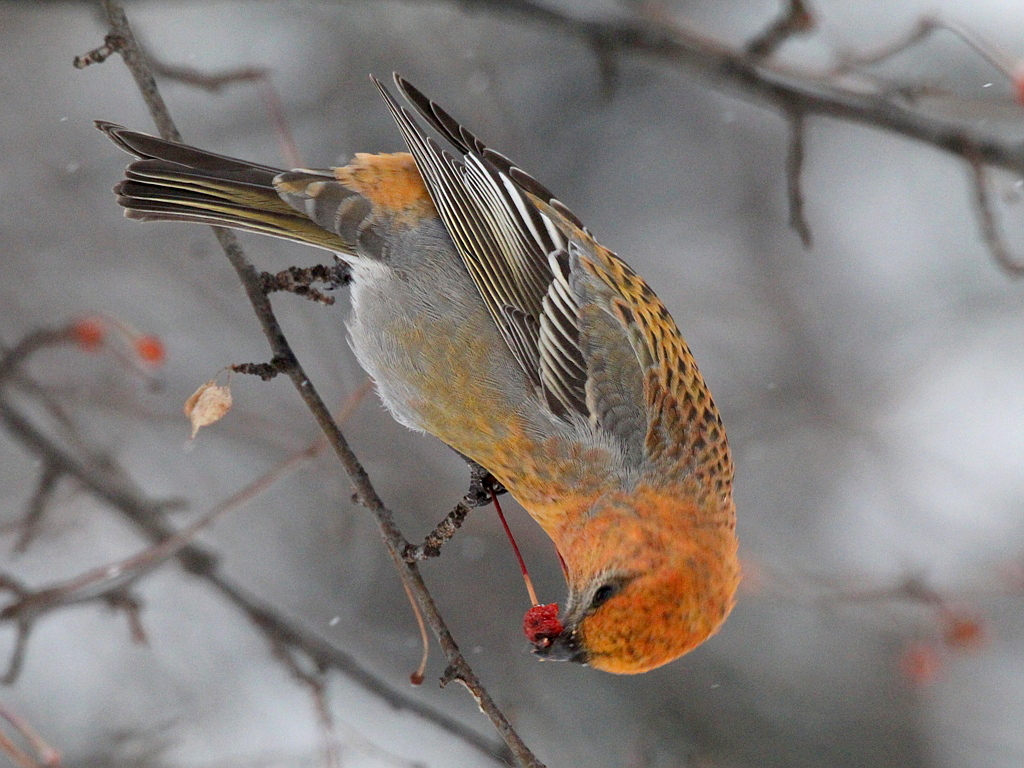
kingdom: Animalia
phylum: Chordata
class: Aves
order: Passeriformes
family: Fringillidae
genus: Pinicola
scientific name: Pinicola enucleator
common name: Pine grosbeak
